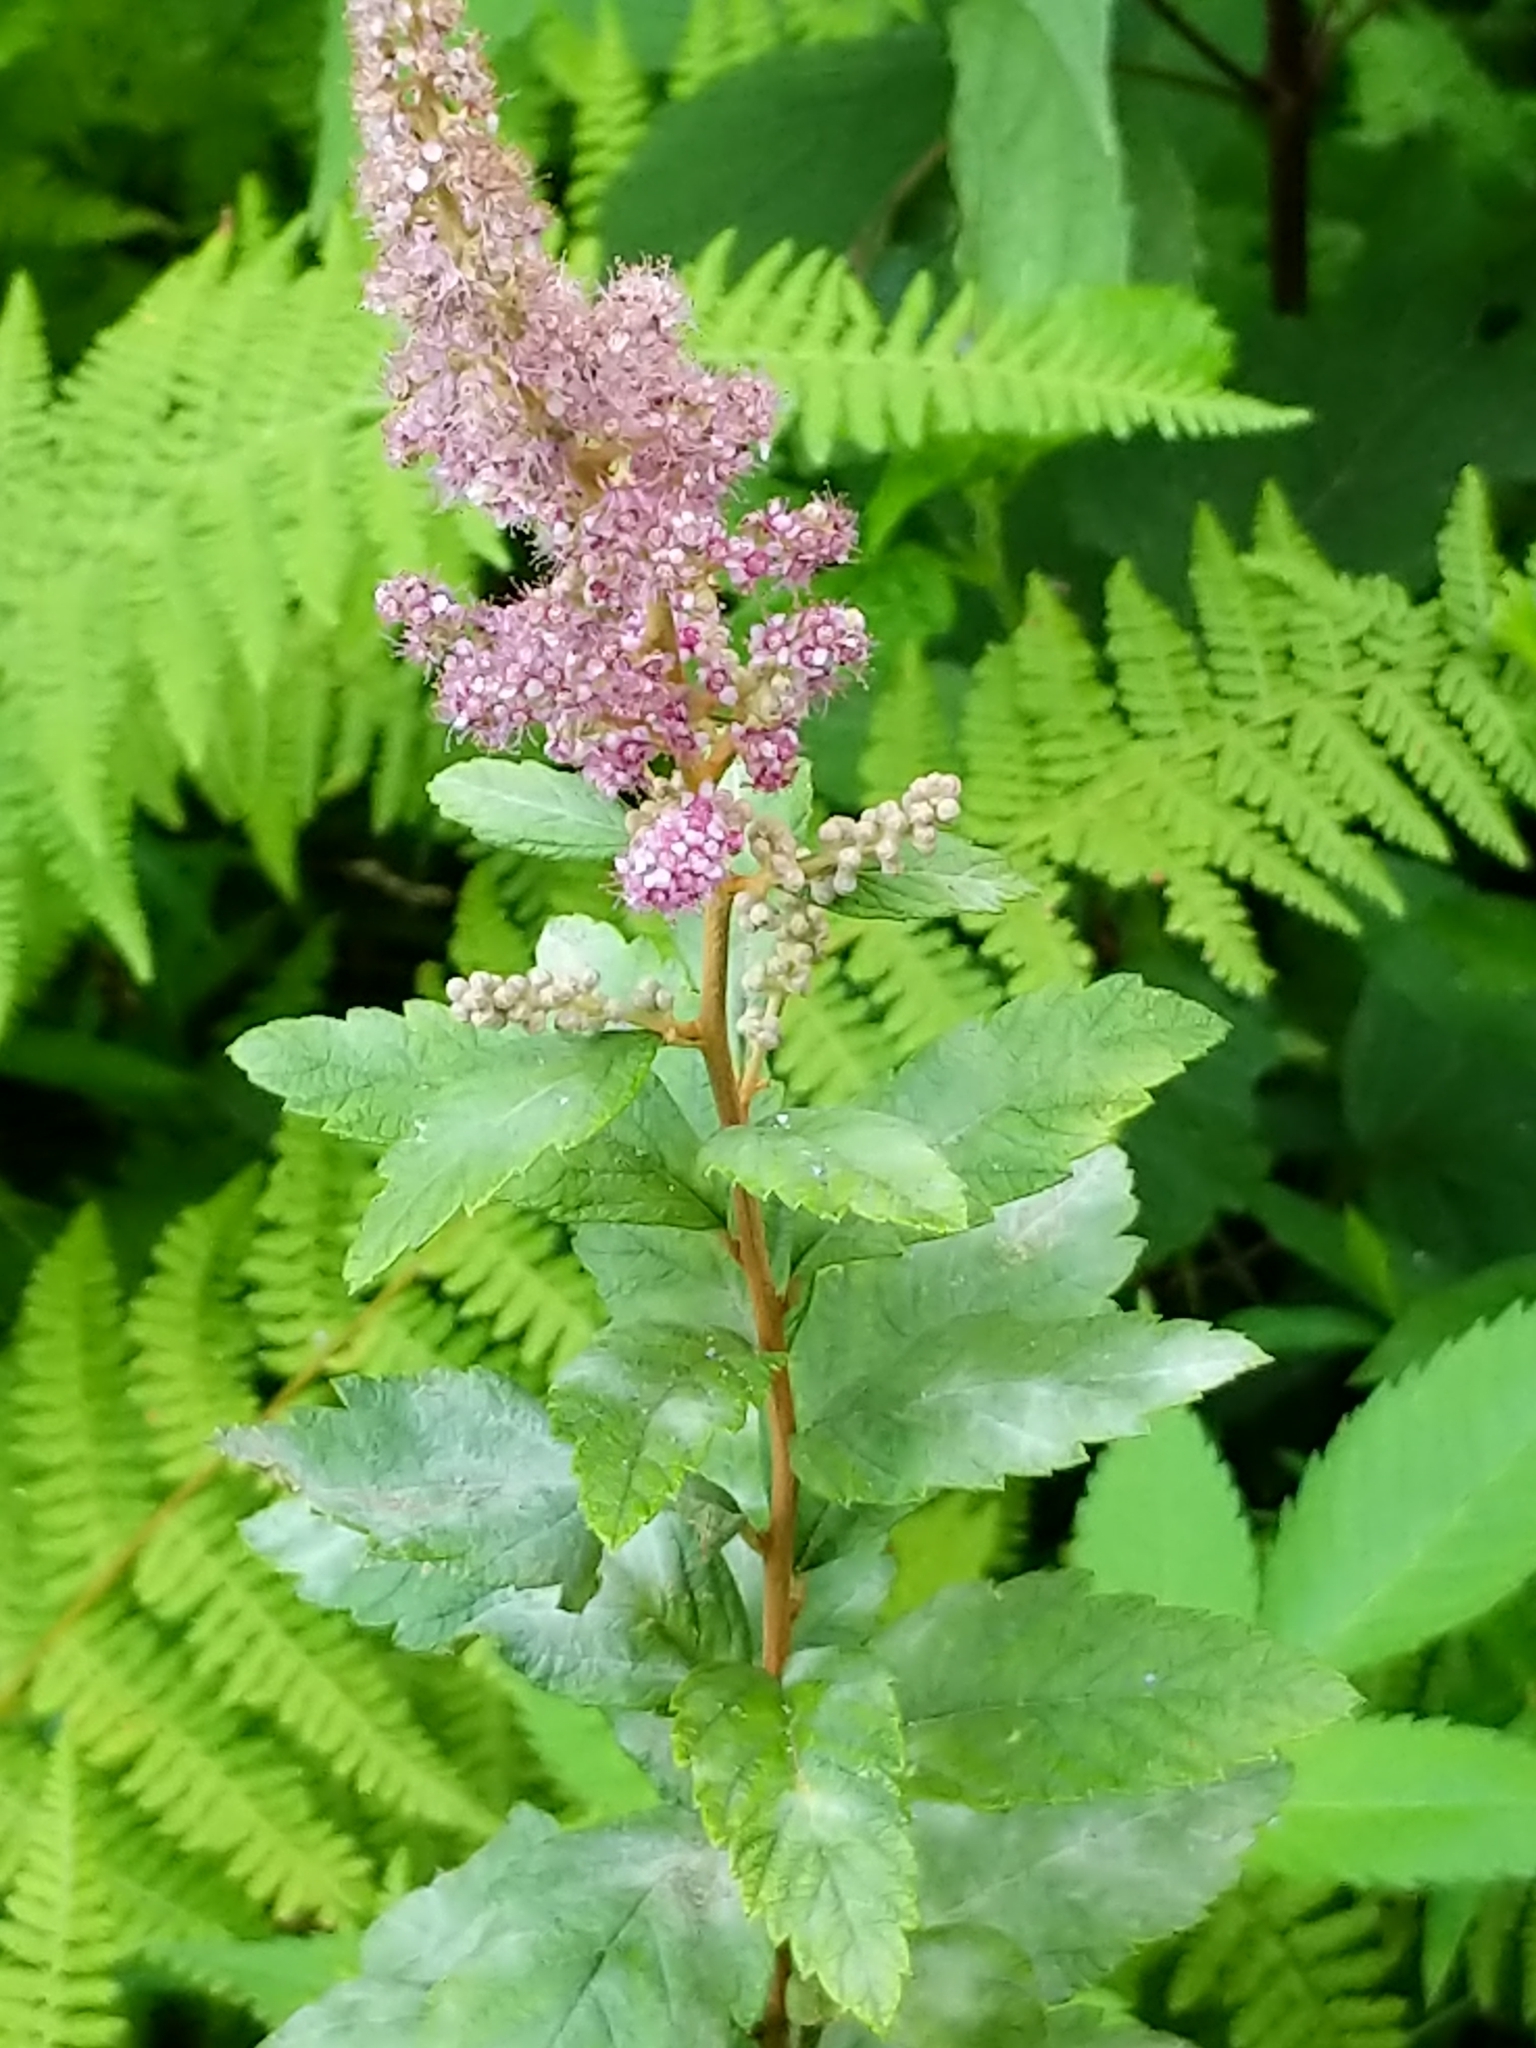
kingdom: Plantae
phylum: Tracheophyta
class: Magnoliopsida
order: Rosales
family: Rosaceae
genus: Spiraea
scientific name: Spiraea tomentosa
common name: Hardhack
